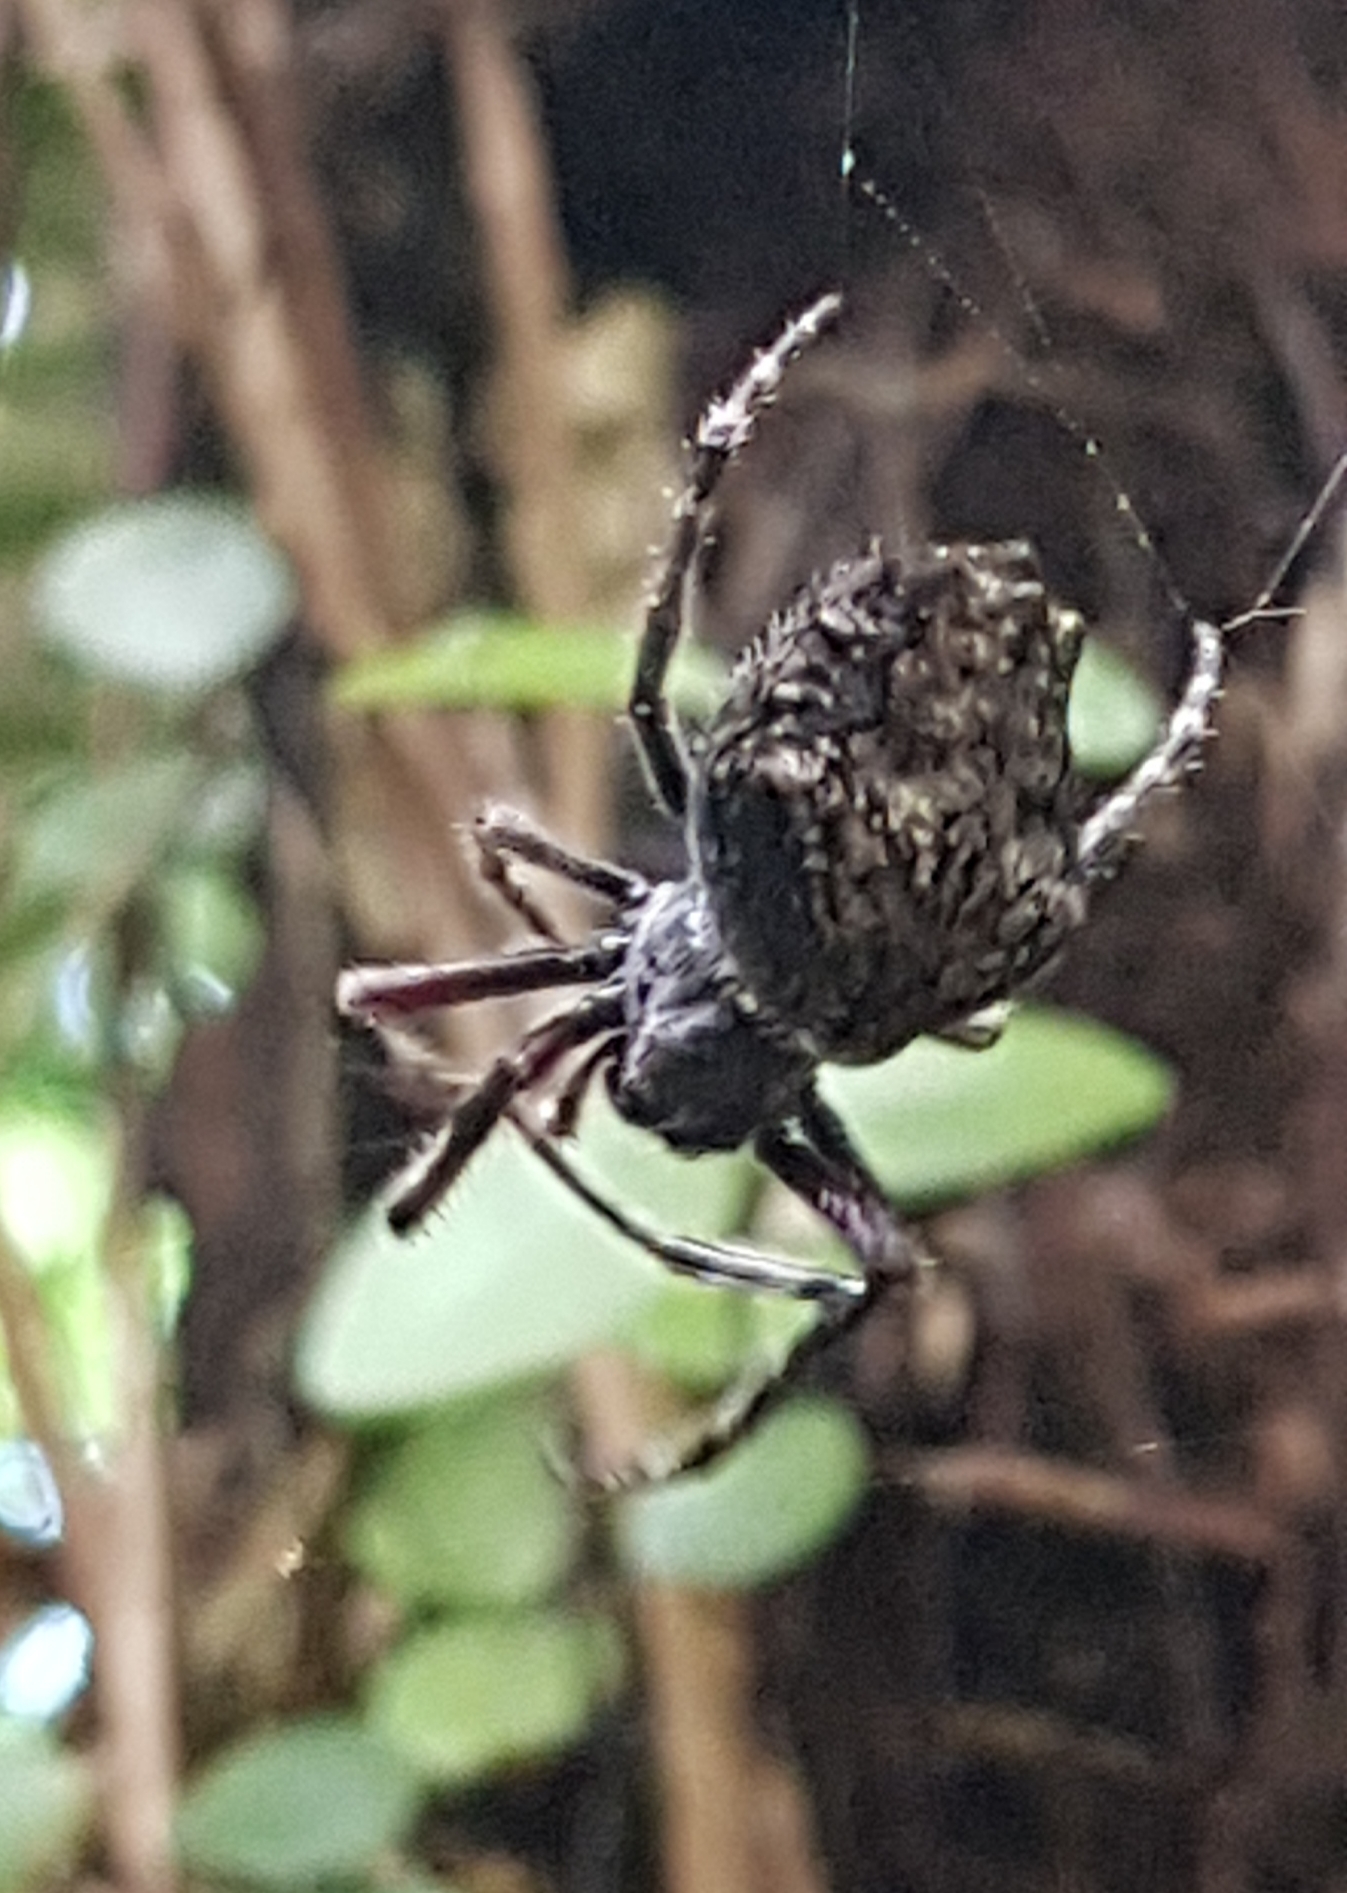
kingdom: Animalia
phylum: Arthropoda
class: Arachnida
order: Araneae
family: Araneidae
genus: Eriophora
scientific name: Eriophora pustulosa
